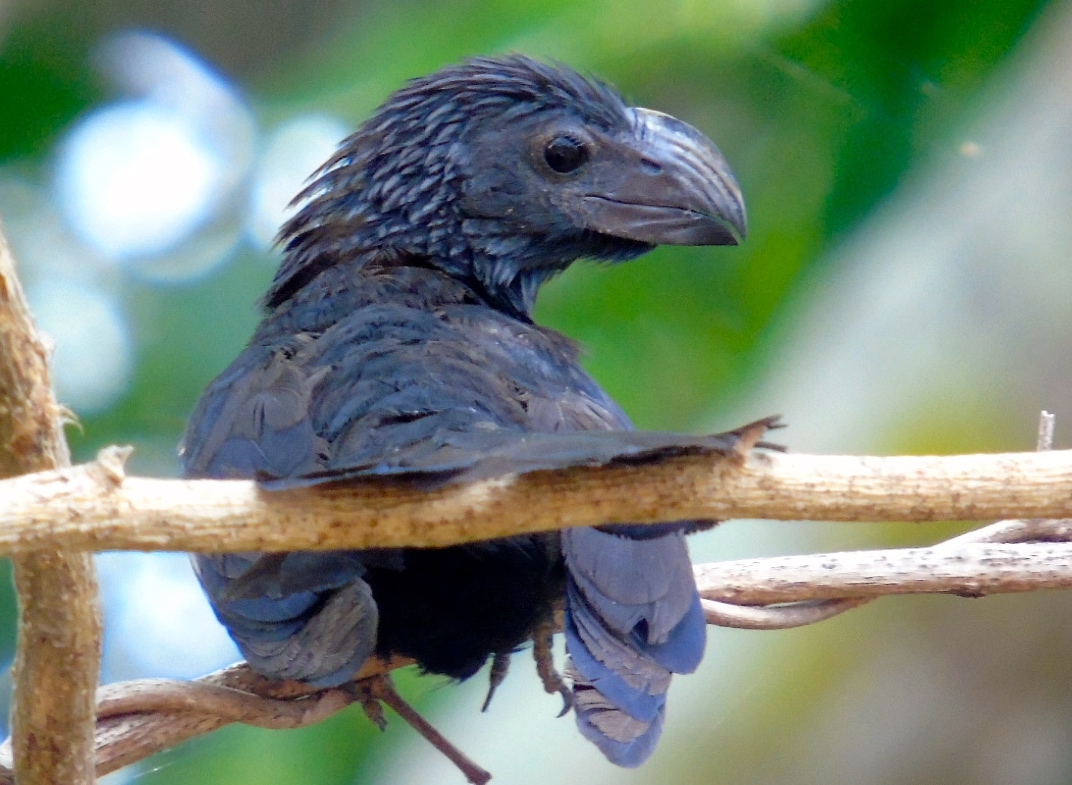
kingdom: Animalia
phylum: Chordata
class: Aves
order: Cuculiformes
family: Cuculidae
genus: Crotophaga
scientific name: Crotophaga sulcirostris
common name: Groove-billed ani
